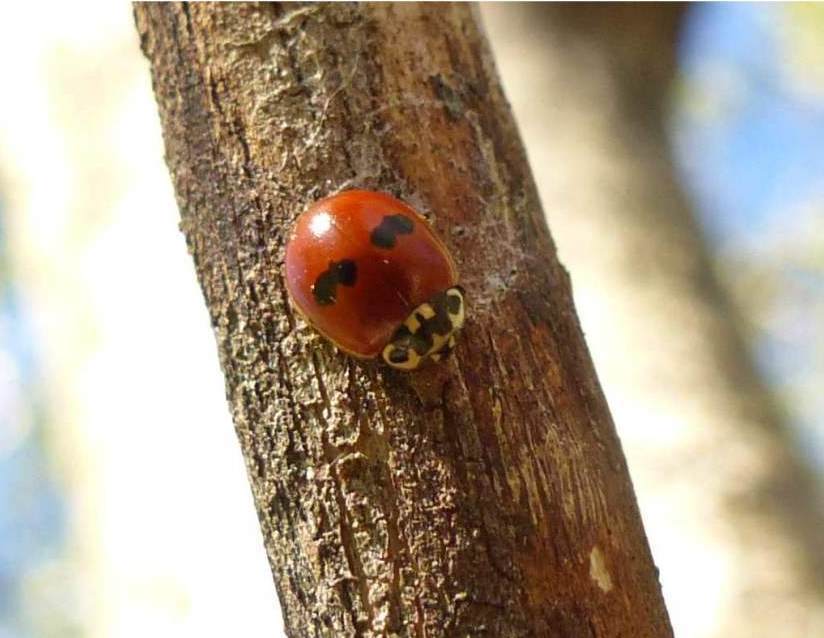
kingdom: Animalia
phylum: Arthropoda
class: Insecta
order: Coleoptera
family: Coccinellidae
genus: Adalia
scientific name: Adalia bipunctata
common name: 2-spot ladybird
